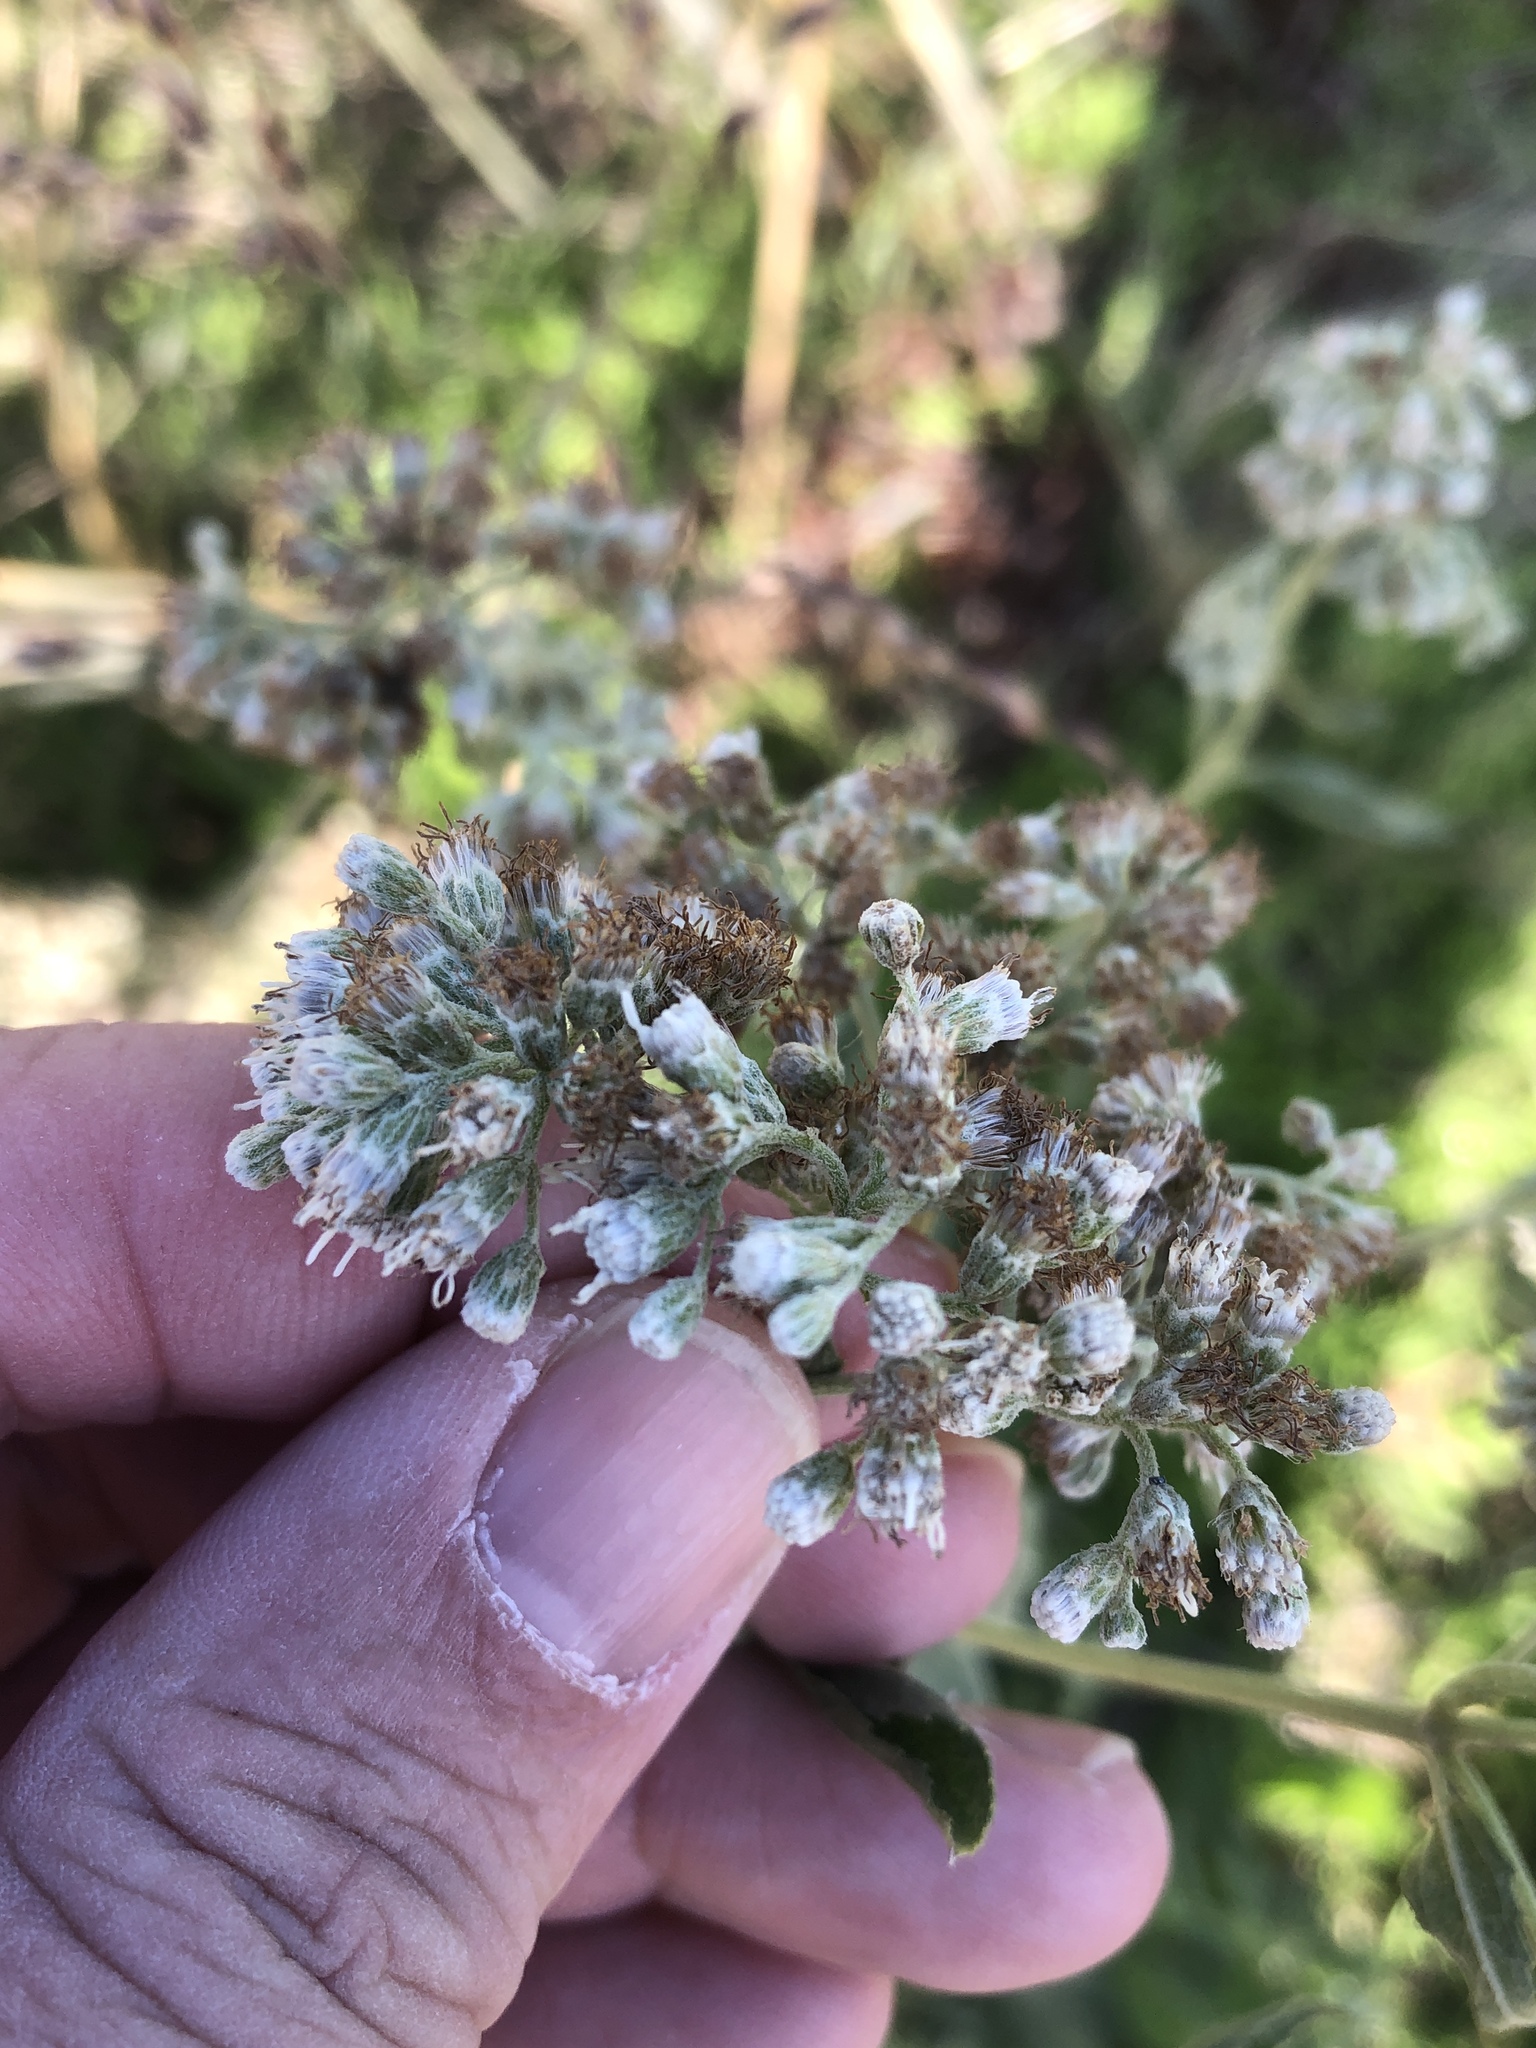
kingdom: Plantae
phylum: Tracheophyta
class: Magnoliopsida
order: Asterales
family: Asteraceae
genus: Eupatorium
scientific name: Eupatorium serotinum
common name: Late boneset
